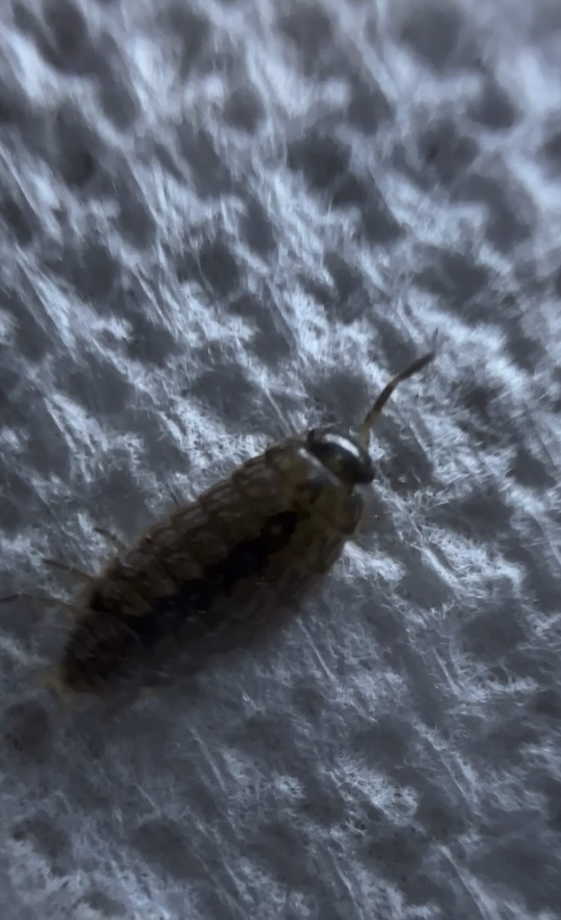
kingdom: Animalia
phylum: Arthropoda
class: Malacostraca
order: Isopoda
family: Philosciidae
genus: Philoscia
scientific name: Philoscia muscorum
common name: Common striped woodlouse
